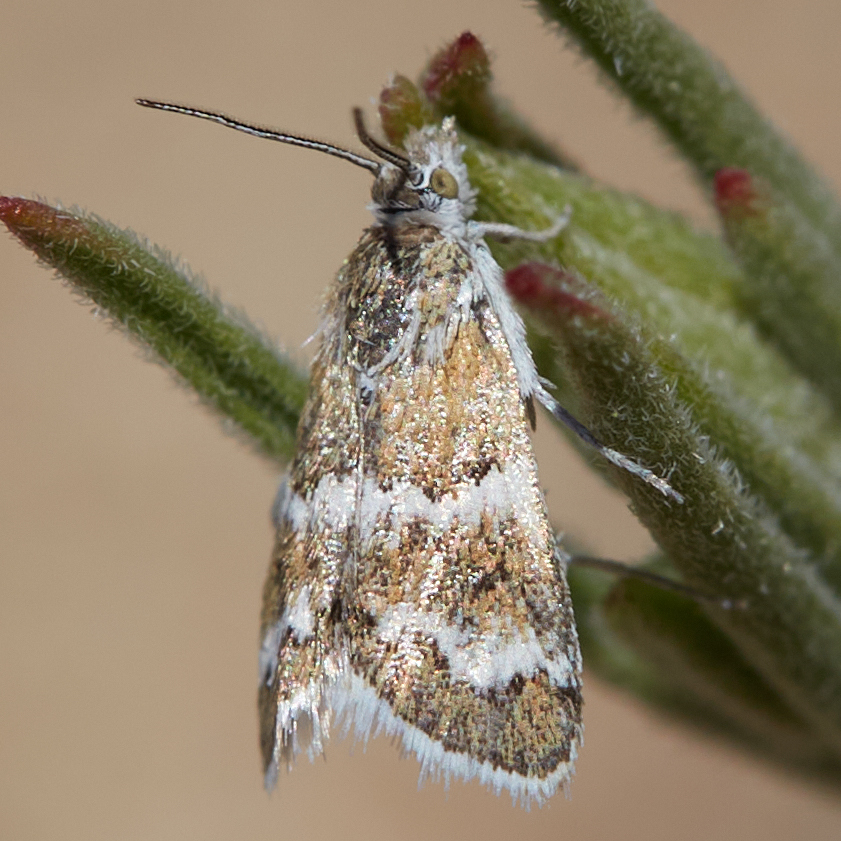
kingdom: Animalia
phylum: Arthropoda
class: Insecta
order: Lepidoptera
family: Crambidae
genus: Nannobotys
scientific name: Nannobotys commortalis
